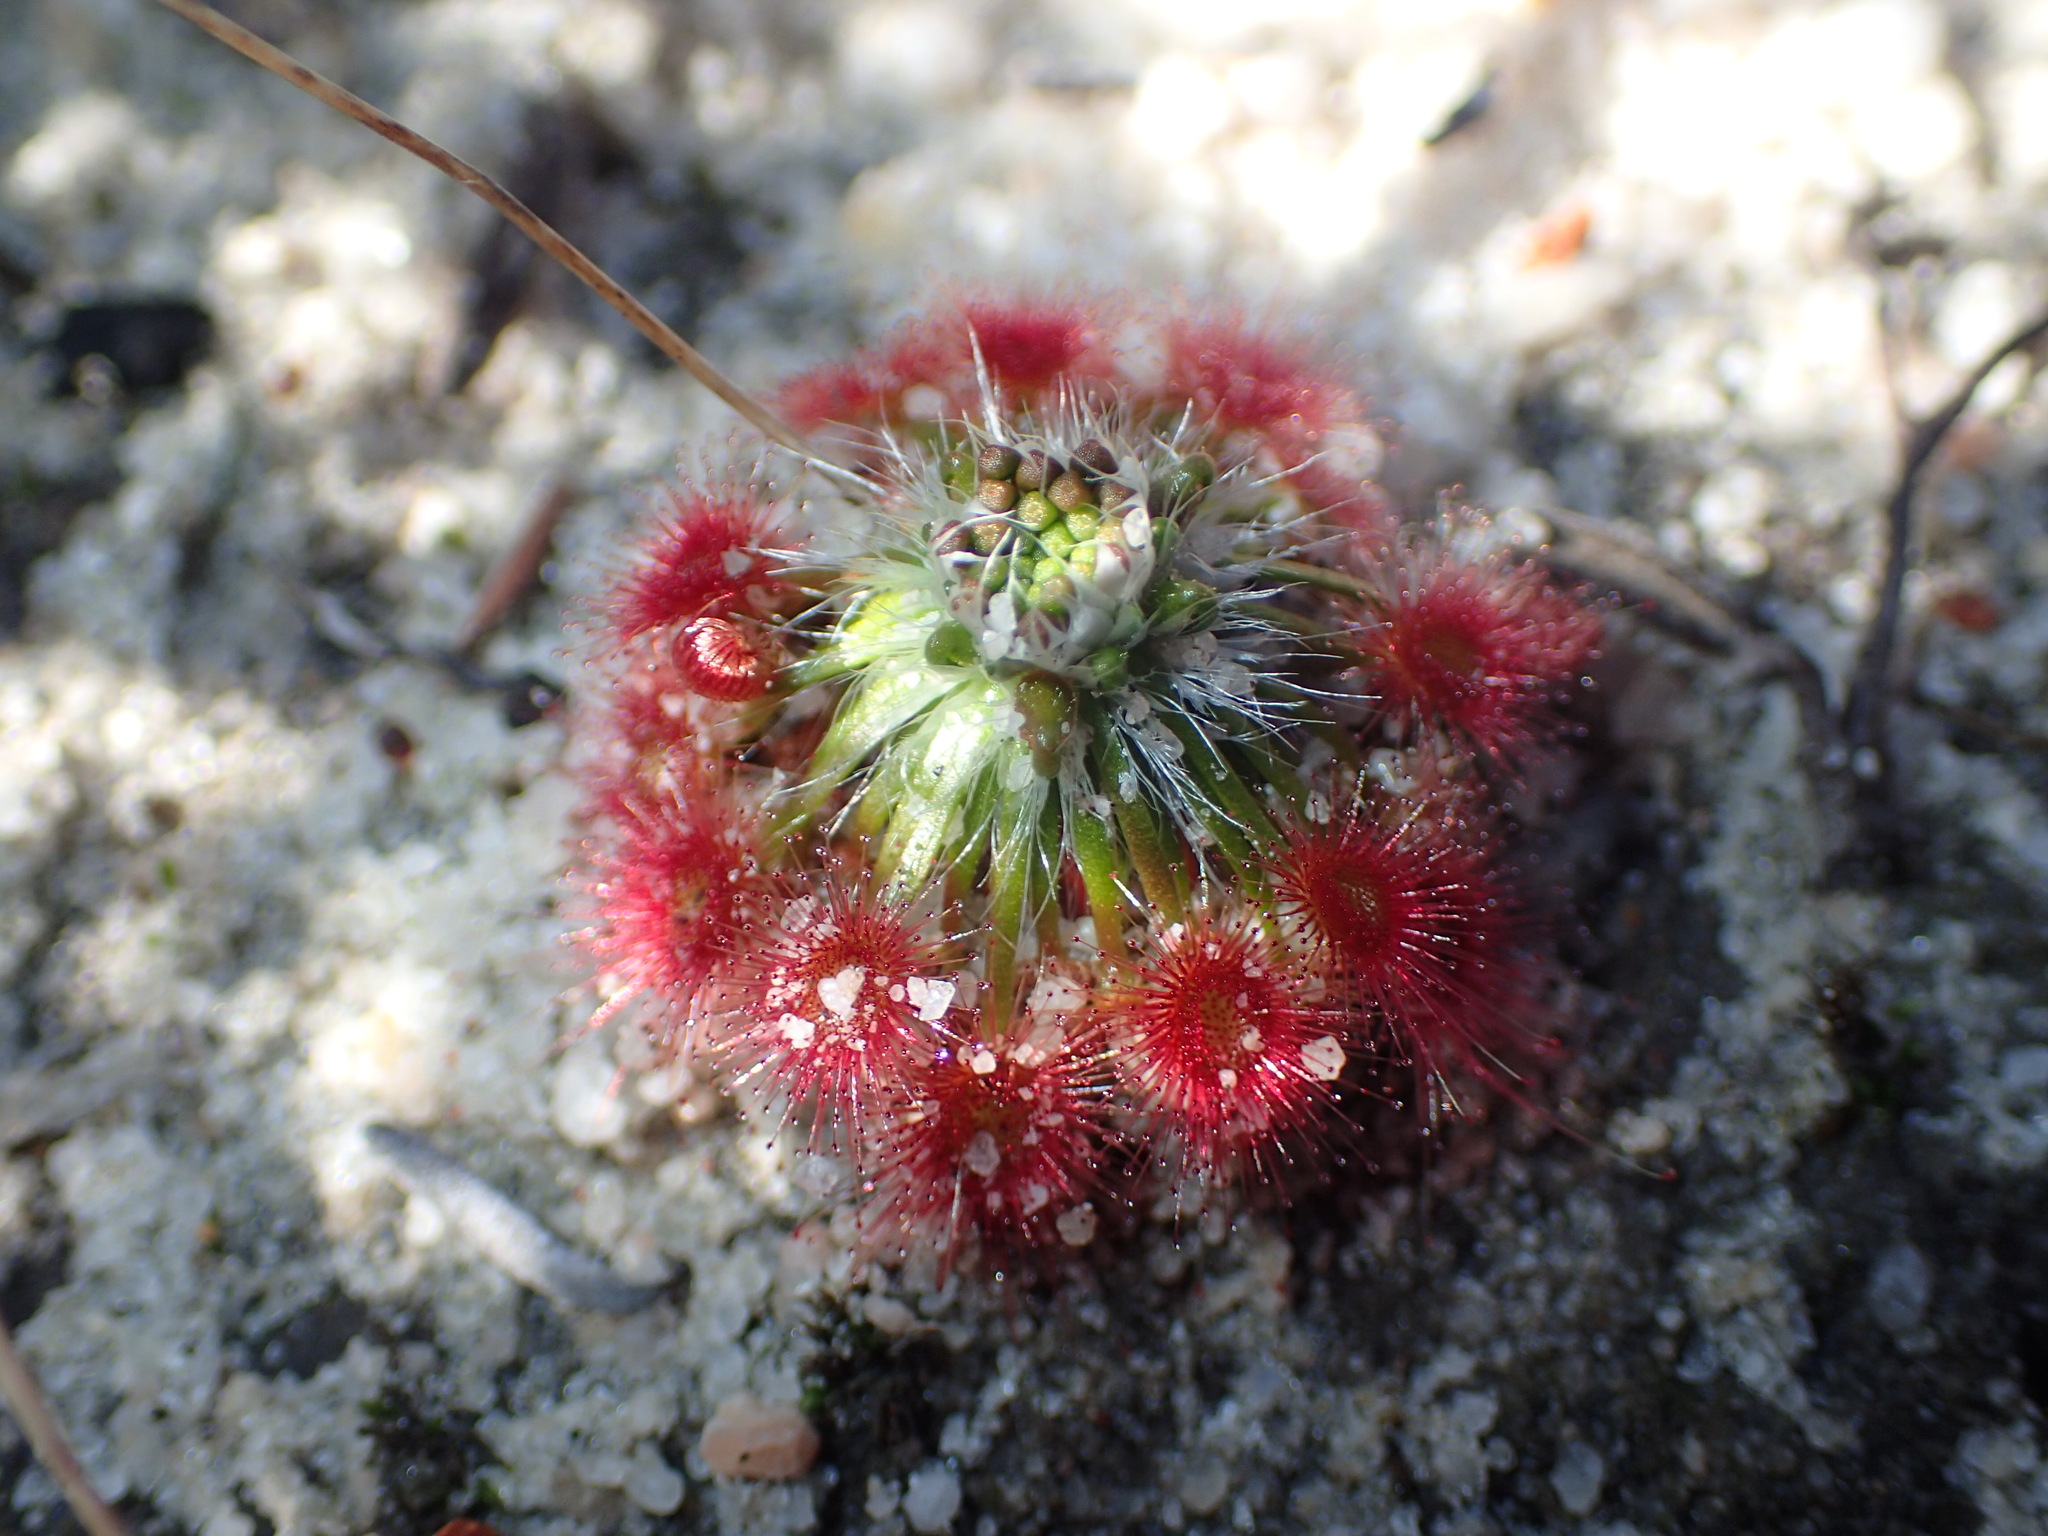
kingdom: Plantae
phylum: Tracheophyta
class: Magnoliopsida
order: Caryophyllales
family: Droseraceae
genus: Drosera
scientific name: Drosera eneabba
